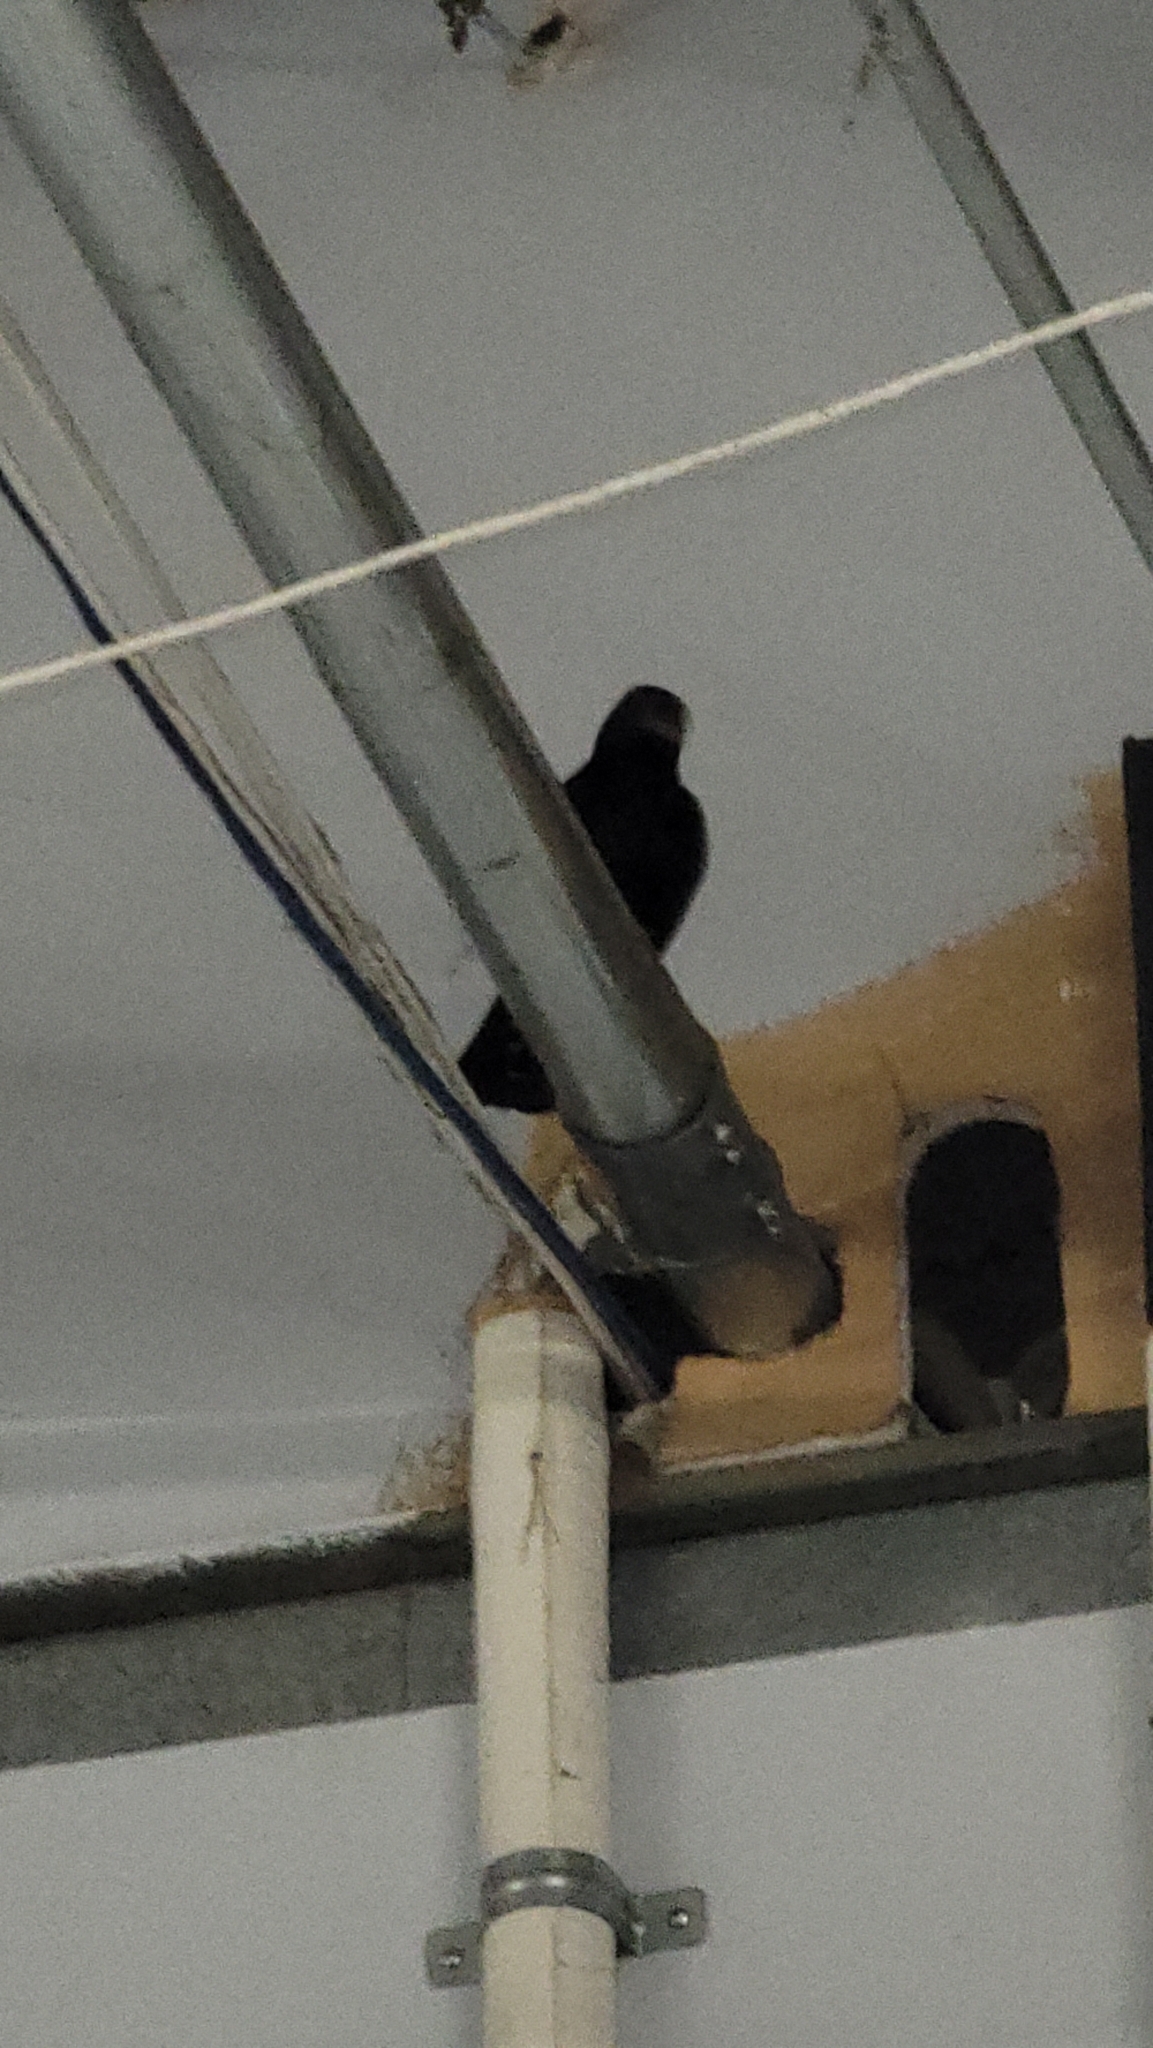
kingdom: Animalia
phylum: Chordata
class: Aves
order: Passeriformes
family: Sturnidae
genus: Sturnus
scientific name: Sturnus vulgaris
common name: Common starling
